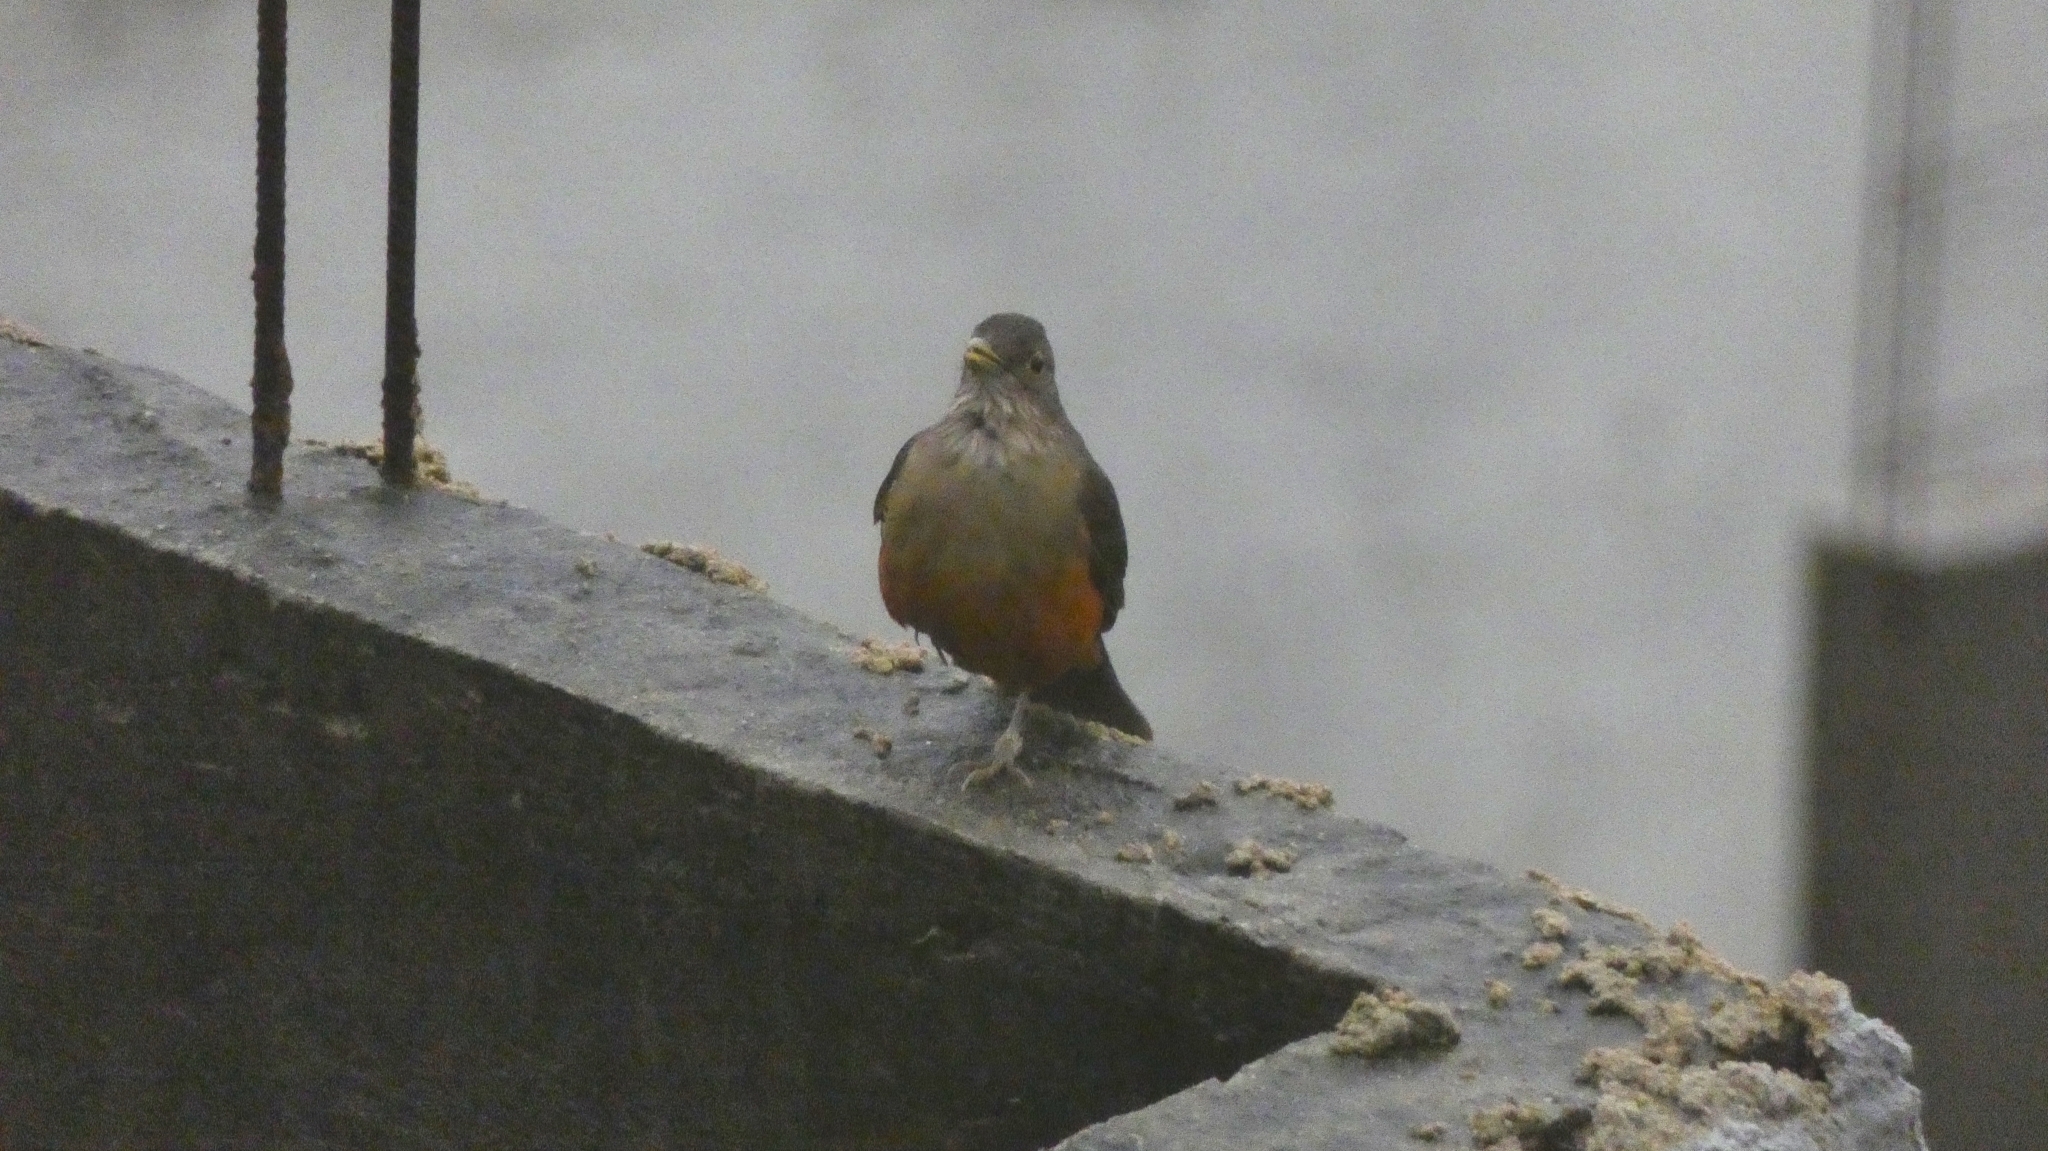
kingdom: Animalia
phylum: Chordata
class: Aves
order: Passeriformes
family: Turdidae
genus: Turdus
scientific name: Turdus rufiventris
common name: Rufous-bellied thrush
